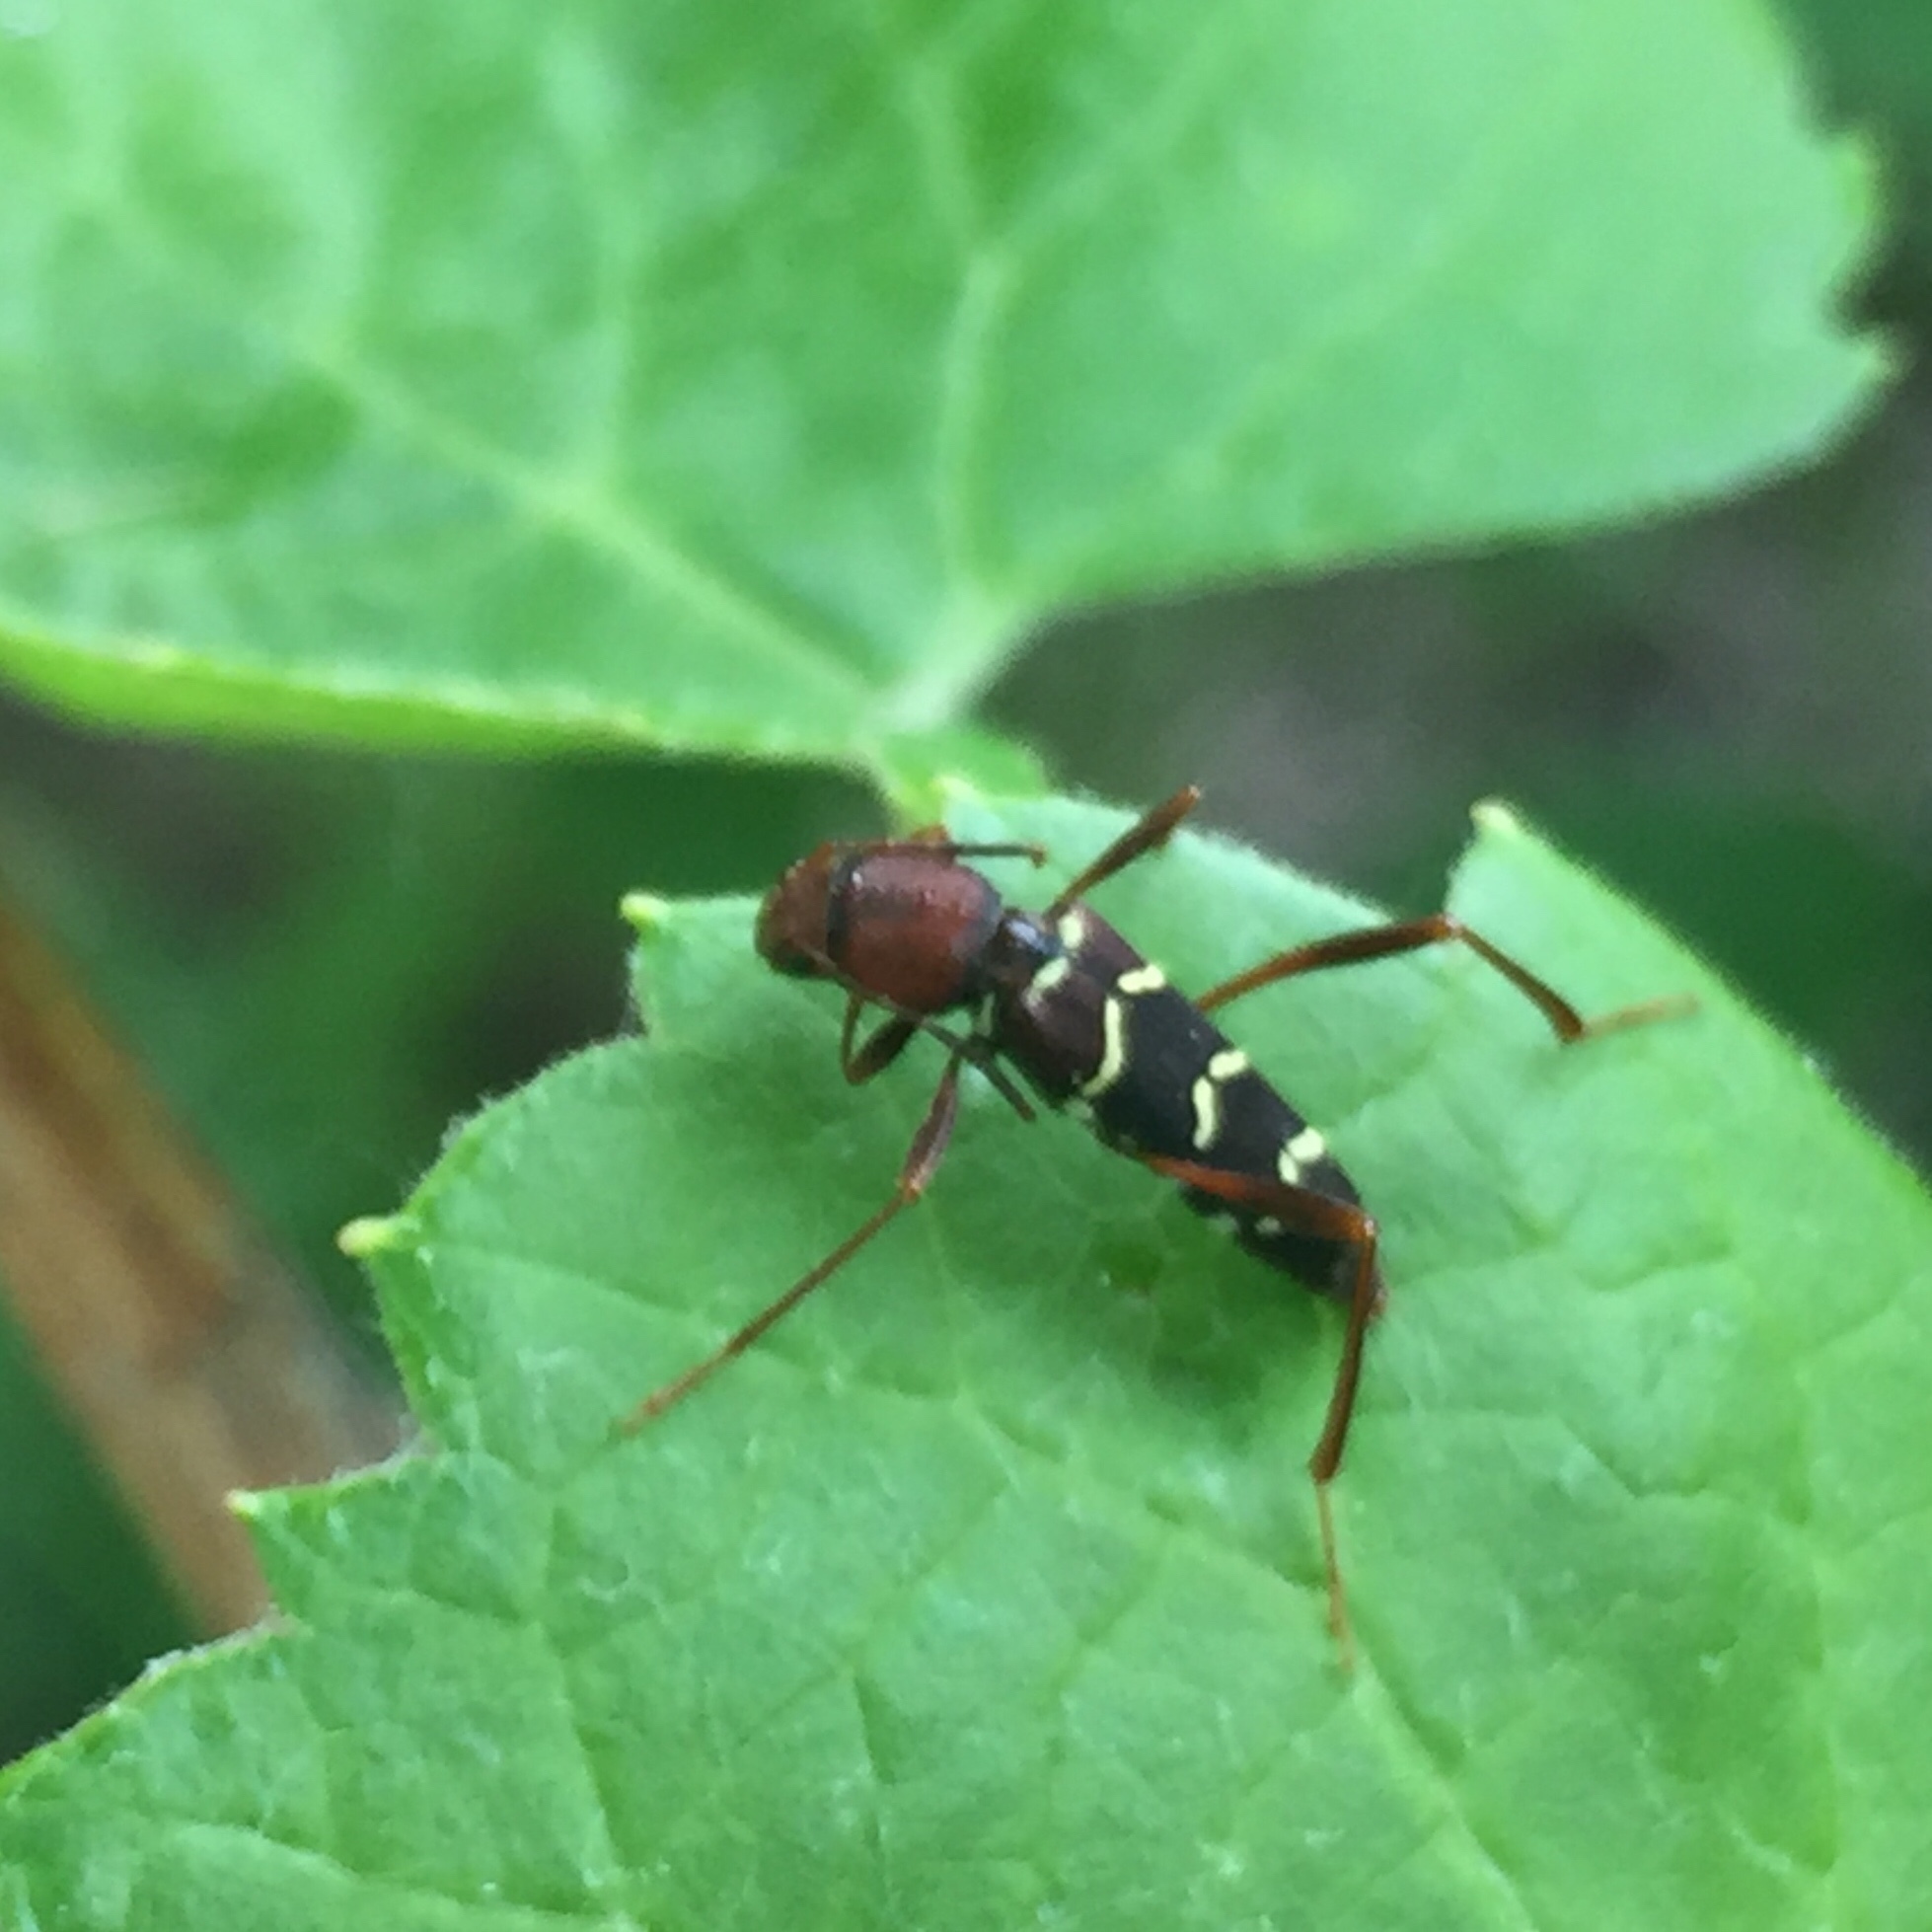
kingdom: Animalia
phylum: Arthropoda
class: Insecta
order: Coleoptera
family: Cerambycidae
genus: Neoclytus
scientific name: Neoclytus acuminatus
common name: Read-headed ash borer
